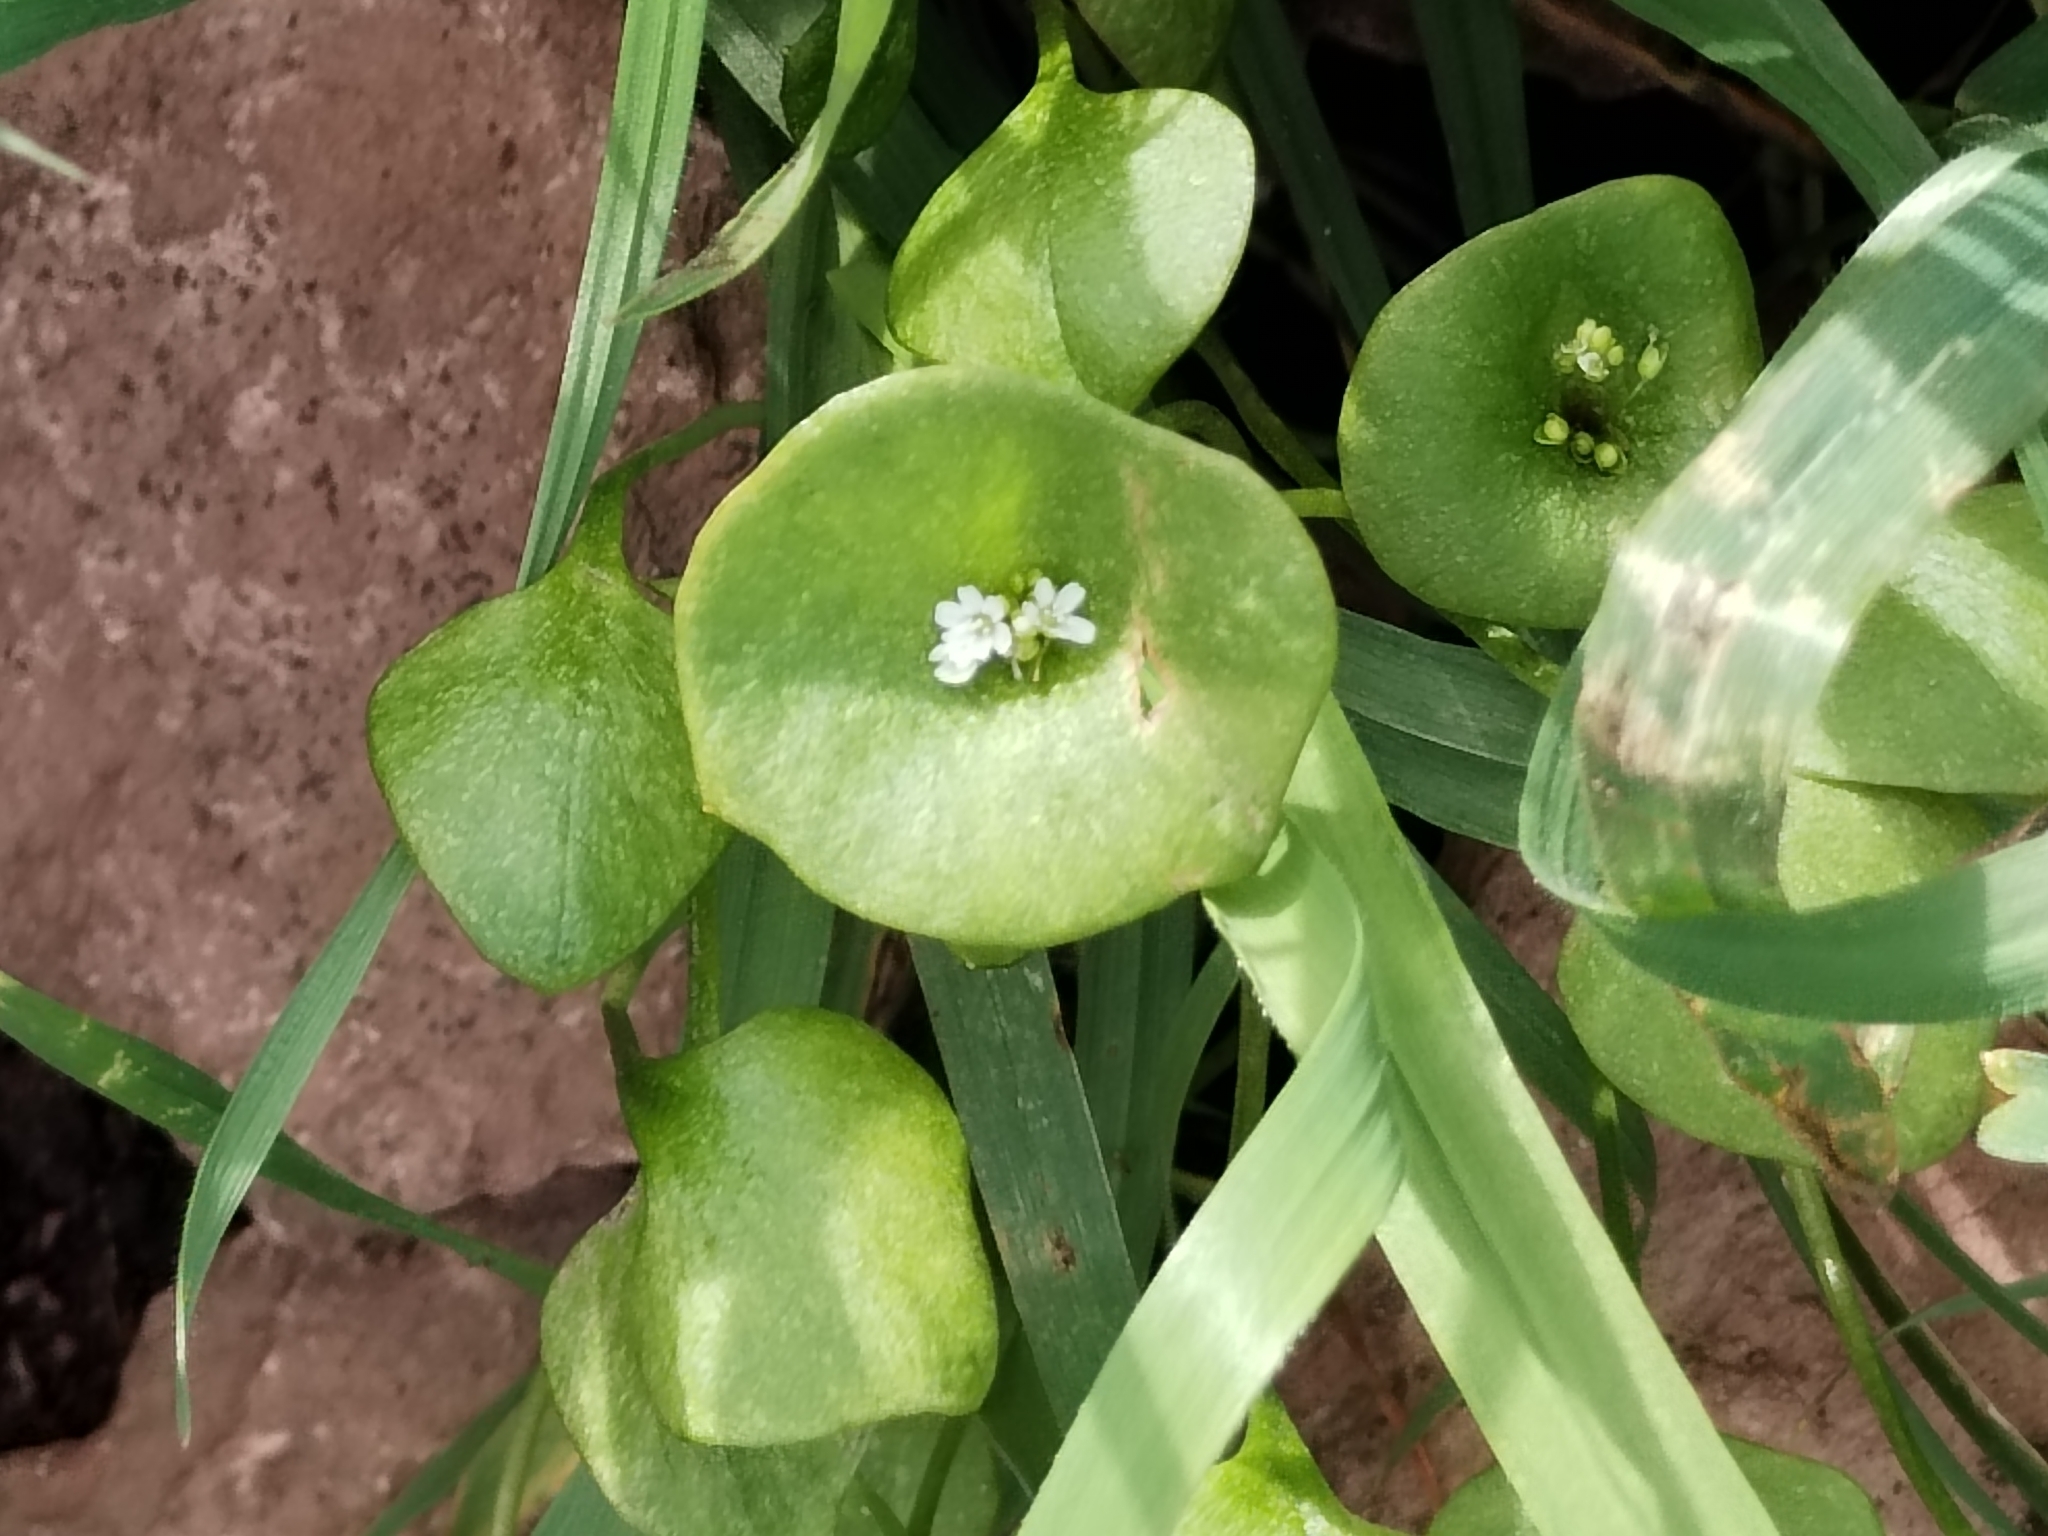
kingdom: Plantae
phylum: Tracheophyta
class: Magnoliopsida
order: Caryophyllales
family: Montiaceae
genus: Claytonia
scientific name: Claytonia perfoliata
